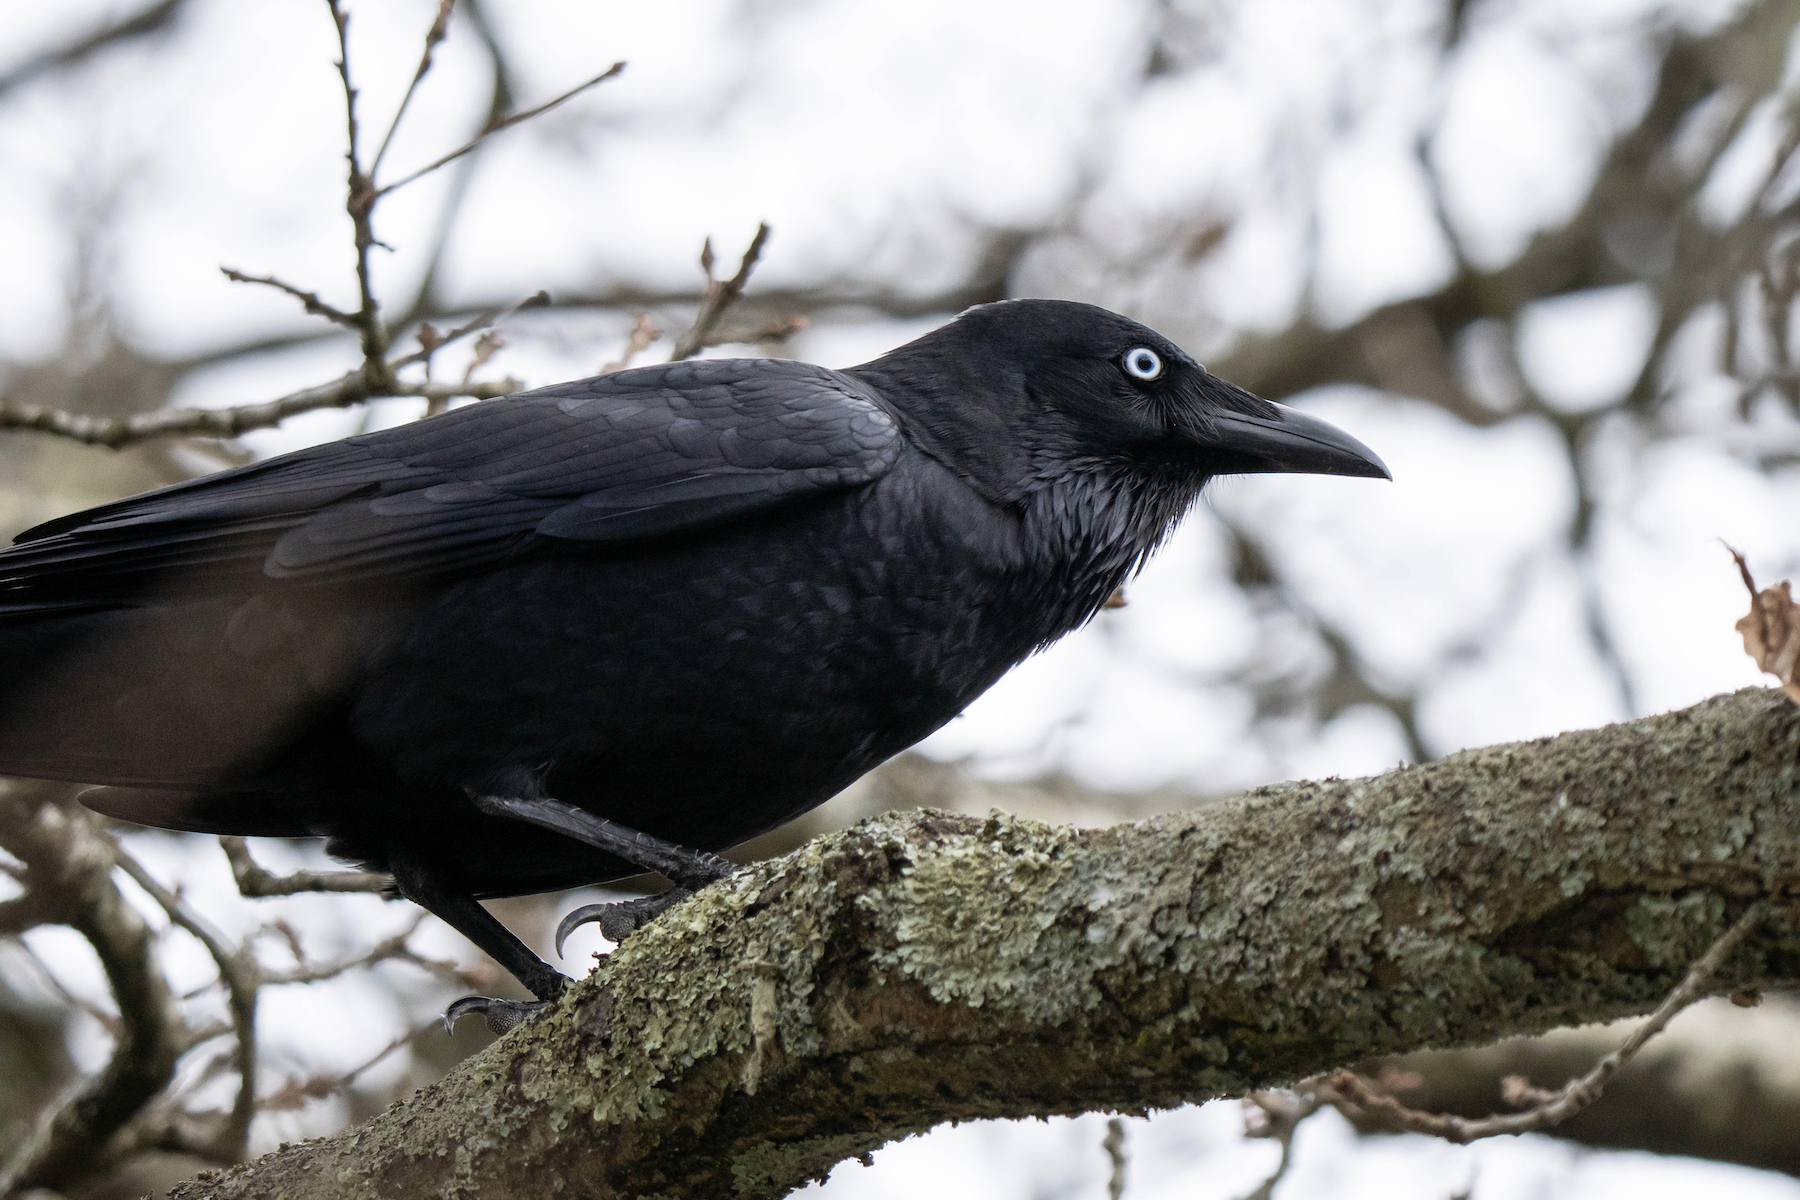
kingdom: Animalia
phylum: Chordata
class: Aves
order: Passeriformes
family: Corvidae
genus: Corvus
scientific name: Corvus mellori
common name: Little raven
